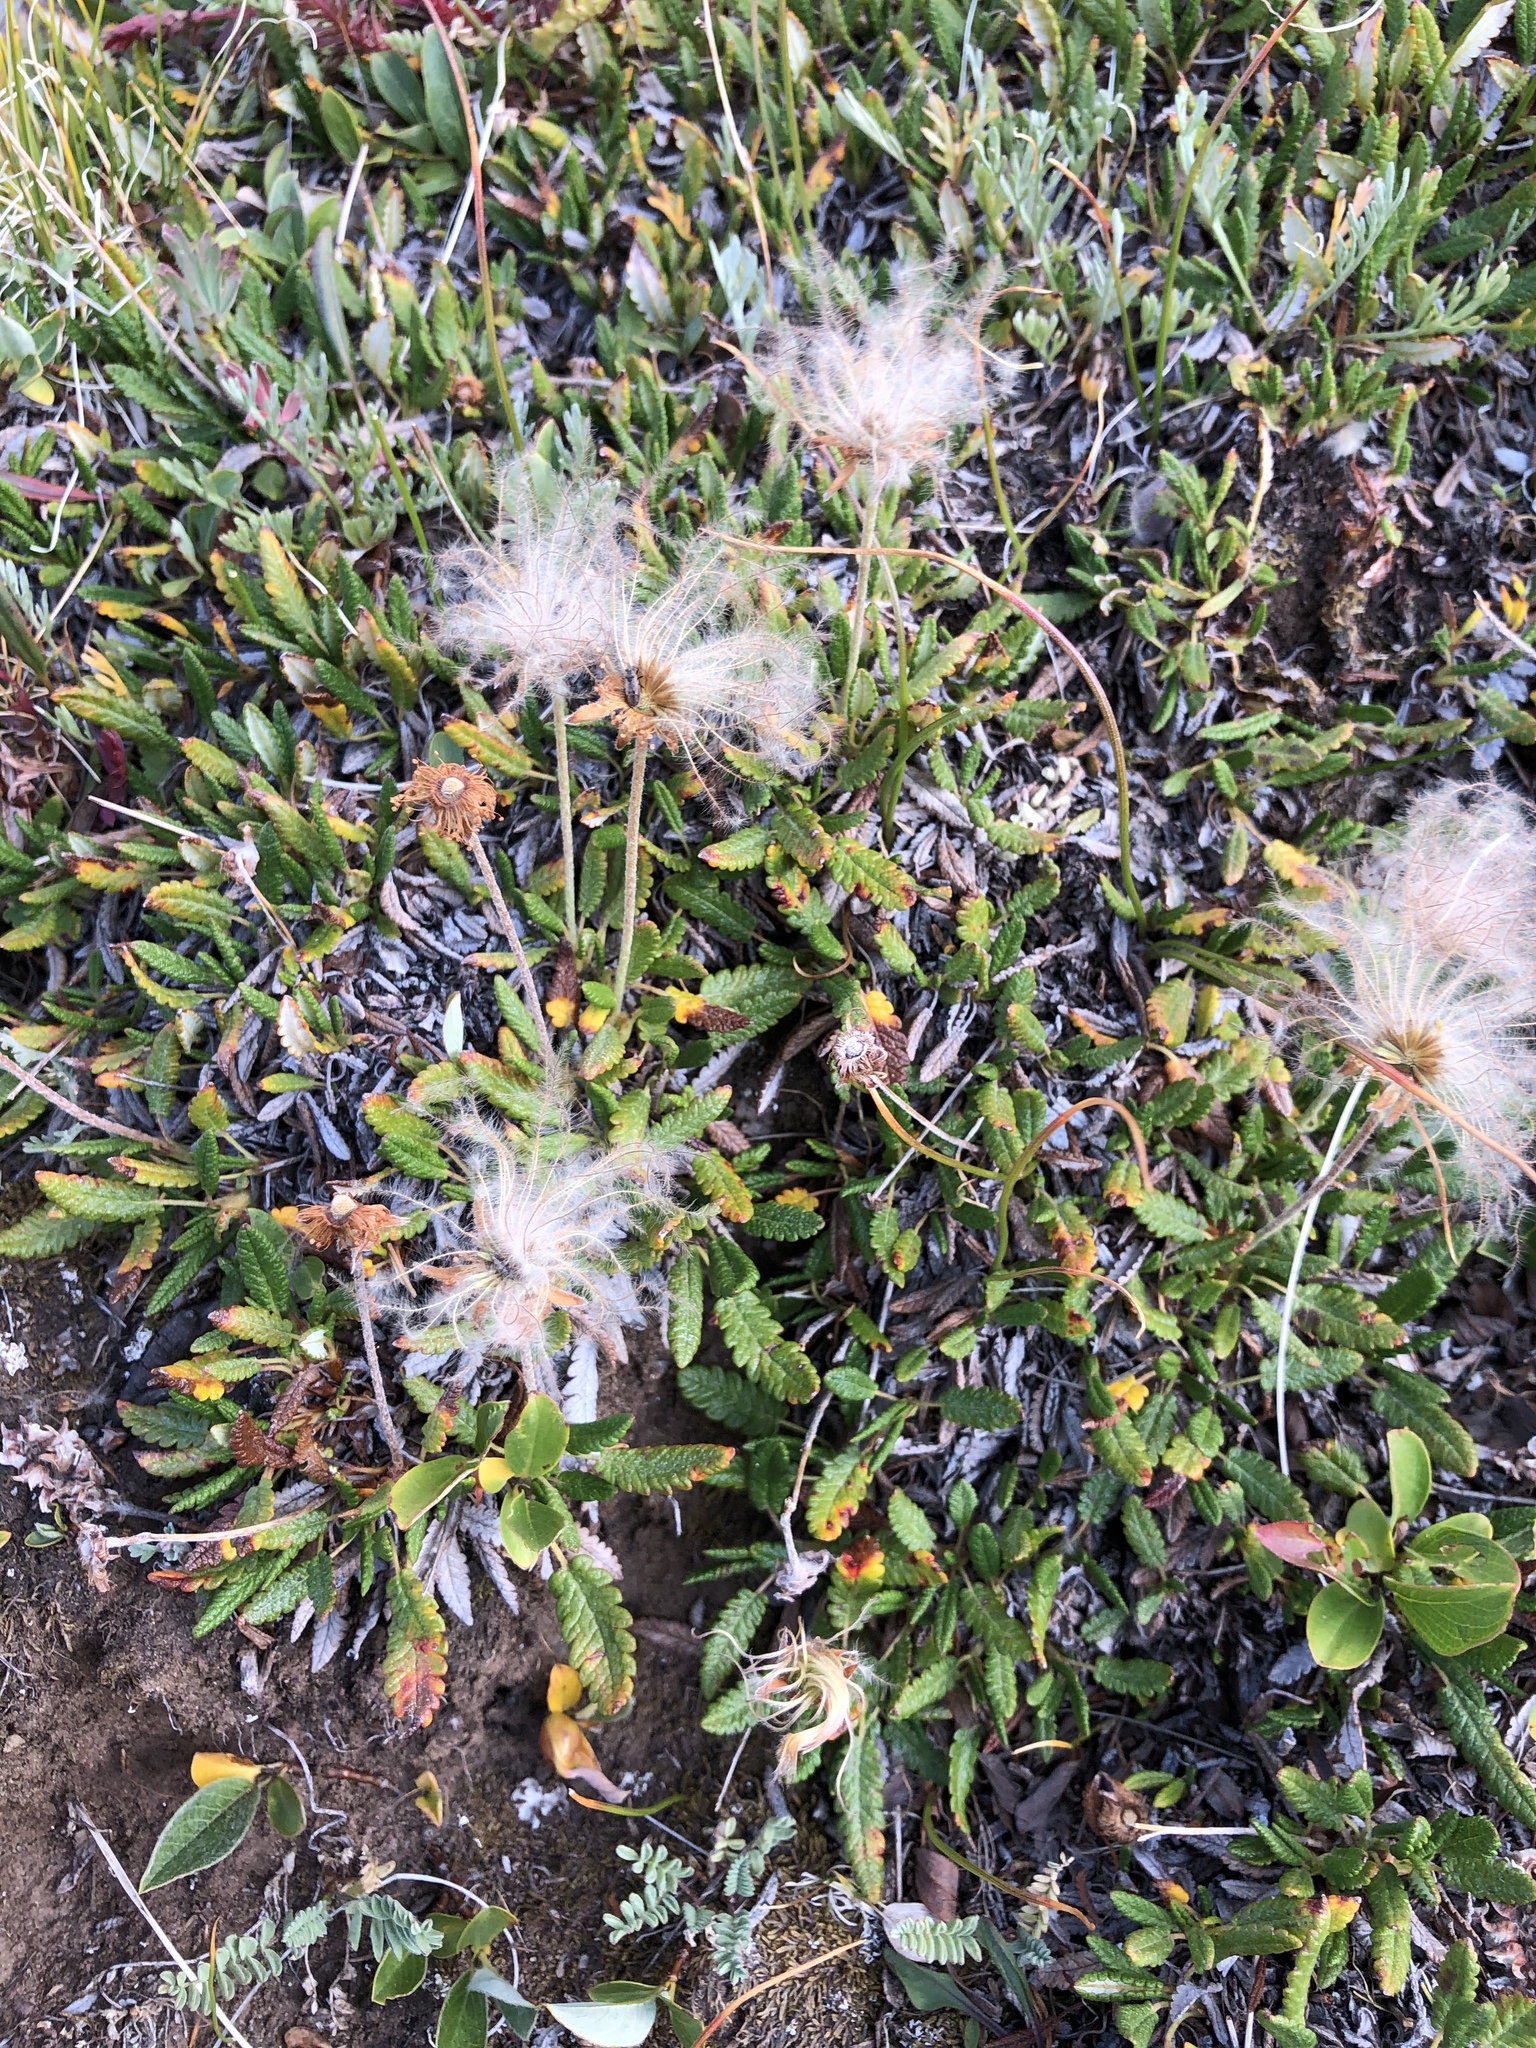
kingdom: Plantae
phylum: Tracheophyta
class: Magnoliopsida
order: Rosales
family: Rosaceae
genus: Dryas
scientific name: Dryas octopetala
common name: Eight-petal mountain-avens
